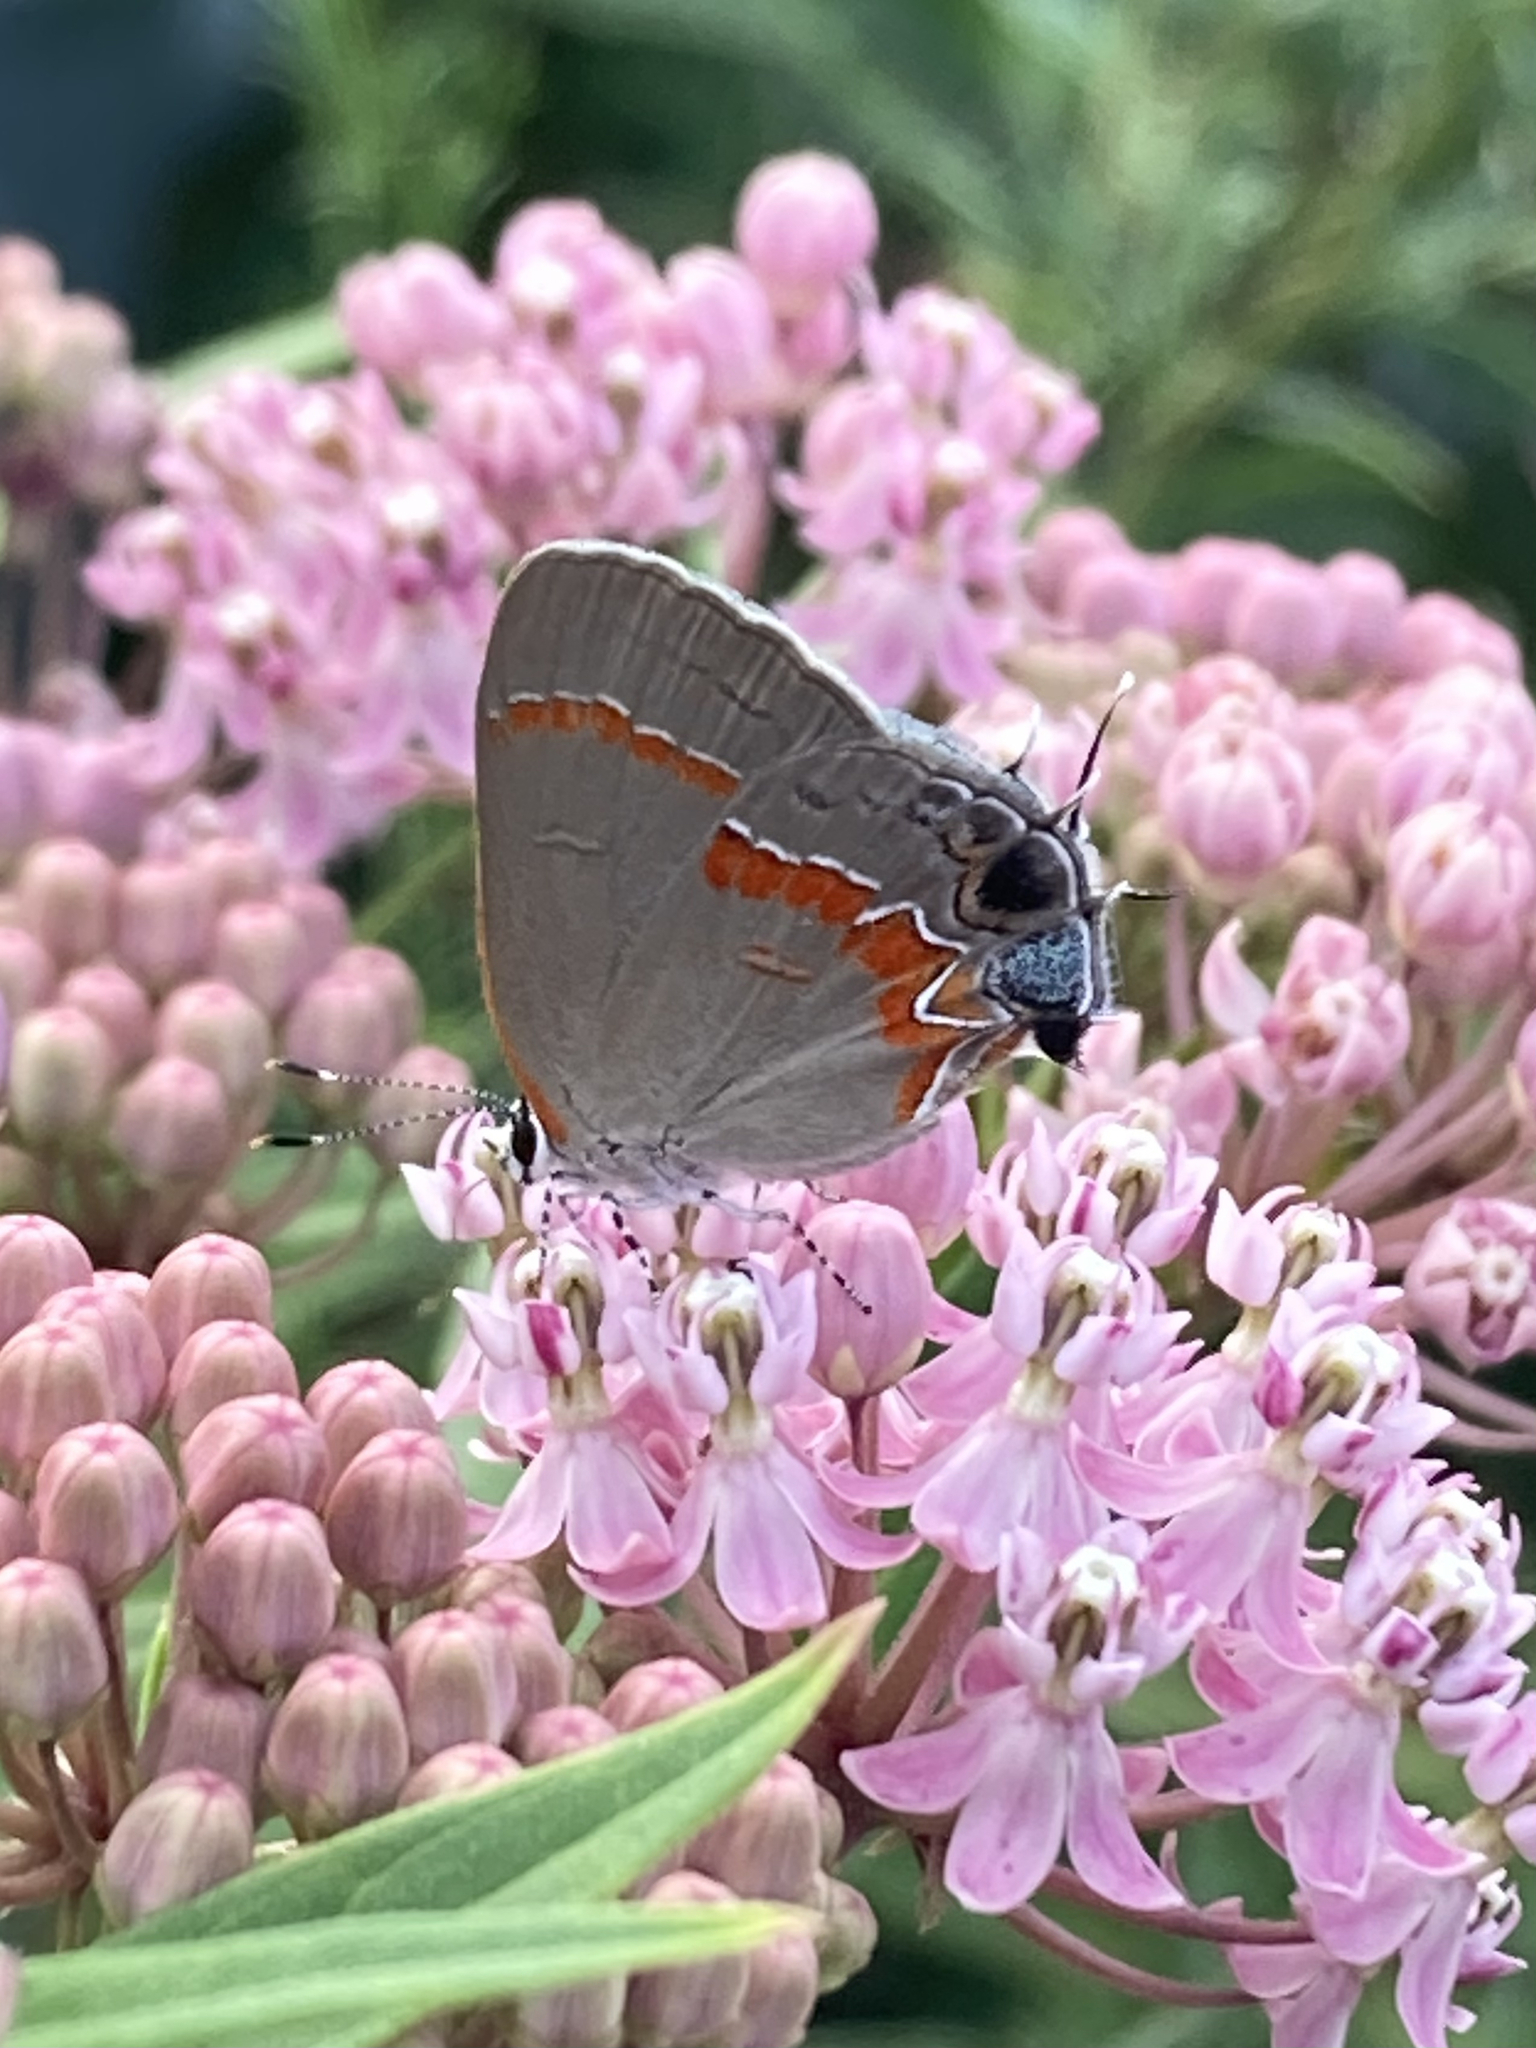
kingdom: Animalia
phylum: Arthropoda
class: Insecta
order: Lepidoptera
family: Lycaenidae
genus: Calycopis
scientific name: Calycopis cecrops
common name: Red-banded hairstreak
